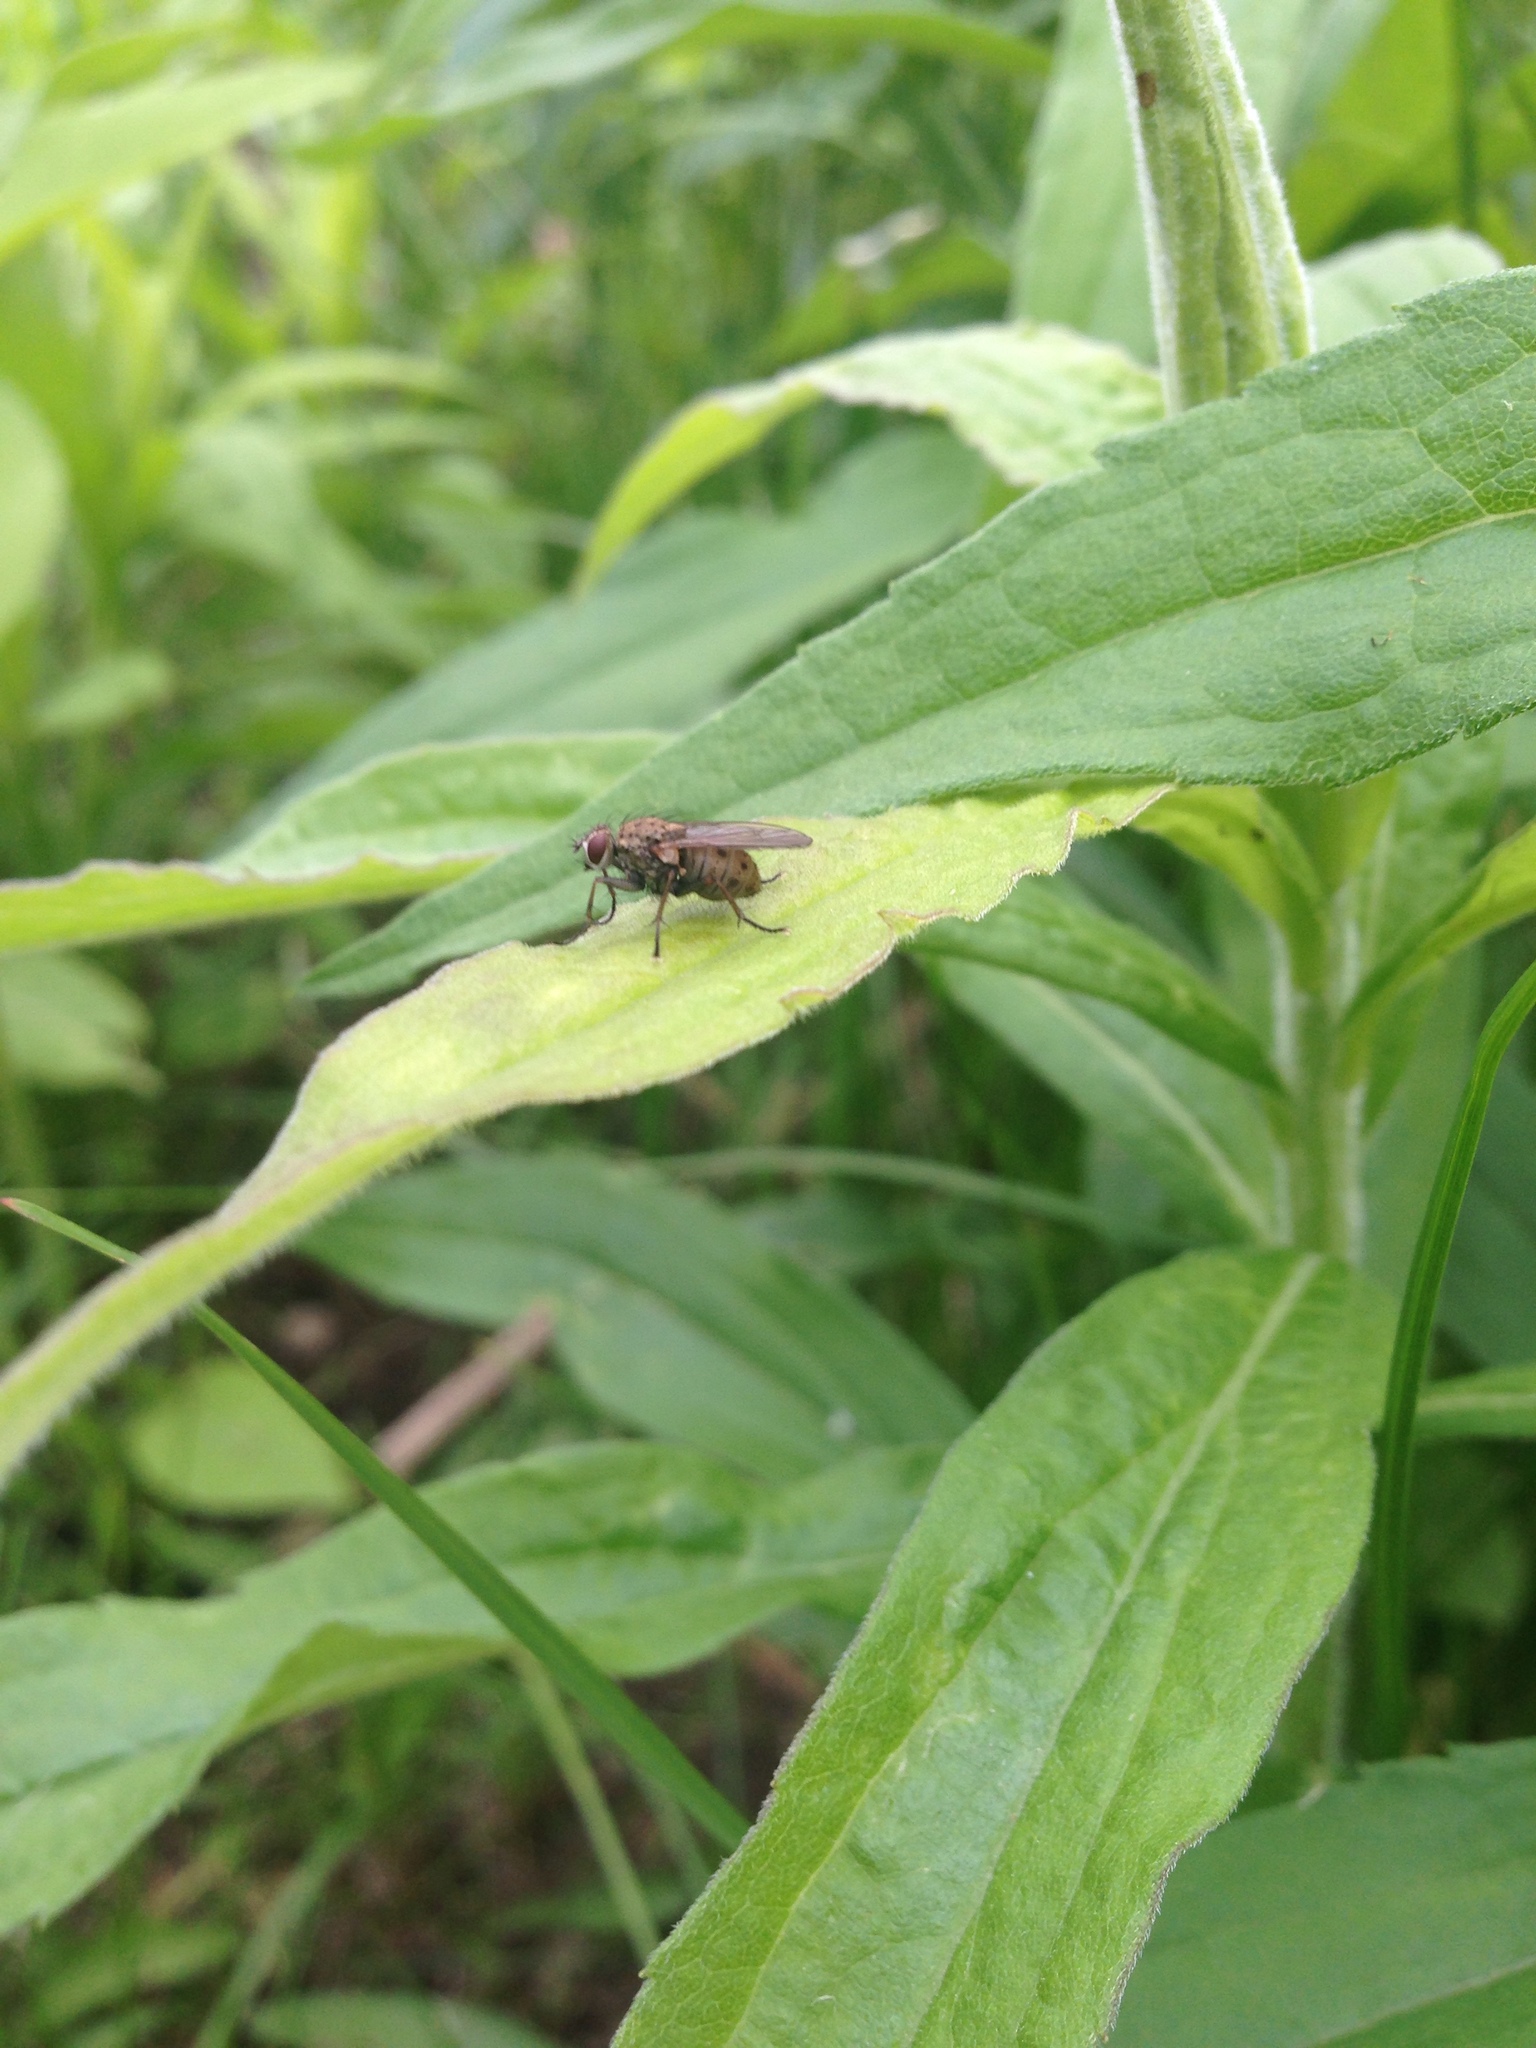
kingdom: Animalia
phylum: Arthropoda
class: Insecta
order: Diptera
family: Muscidae
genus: Coenosia
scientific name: Coenosia tigrina
